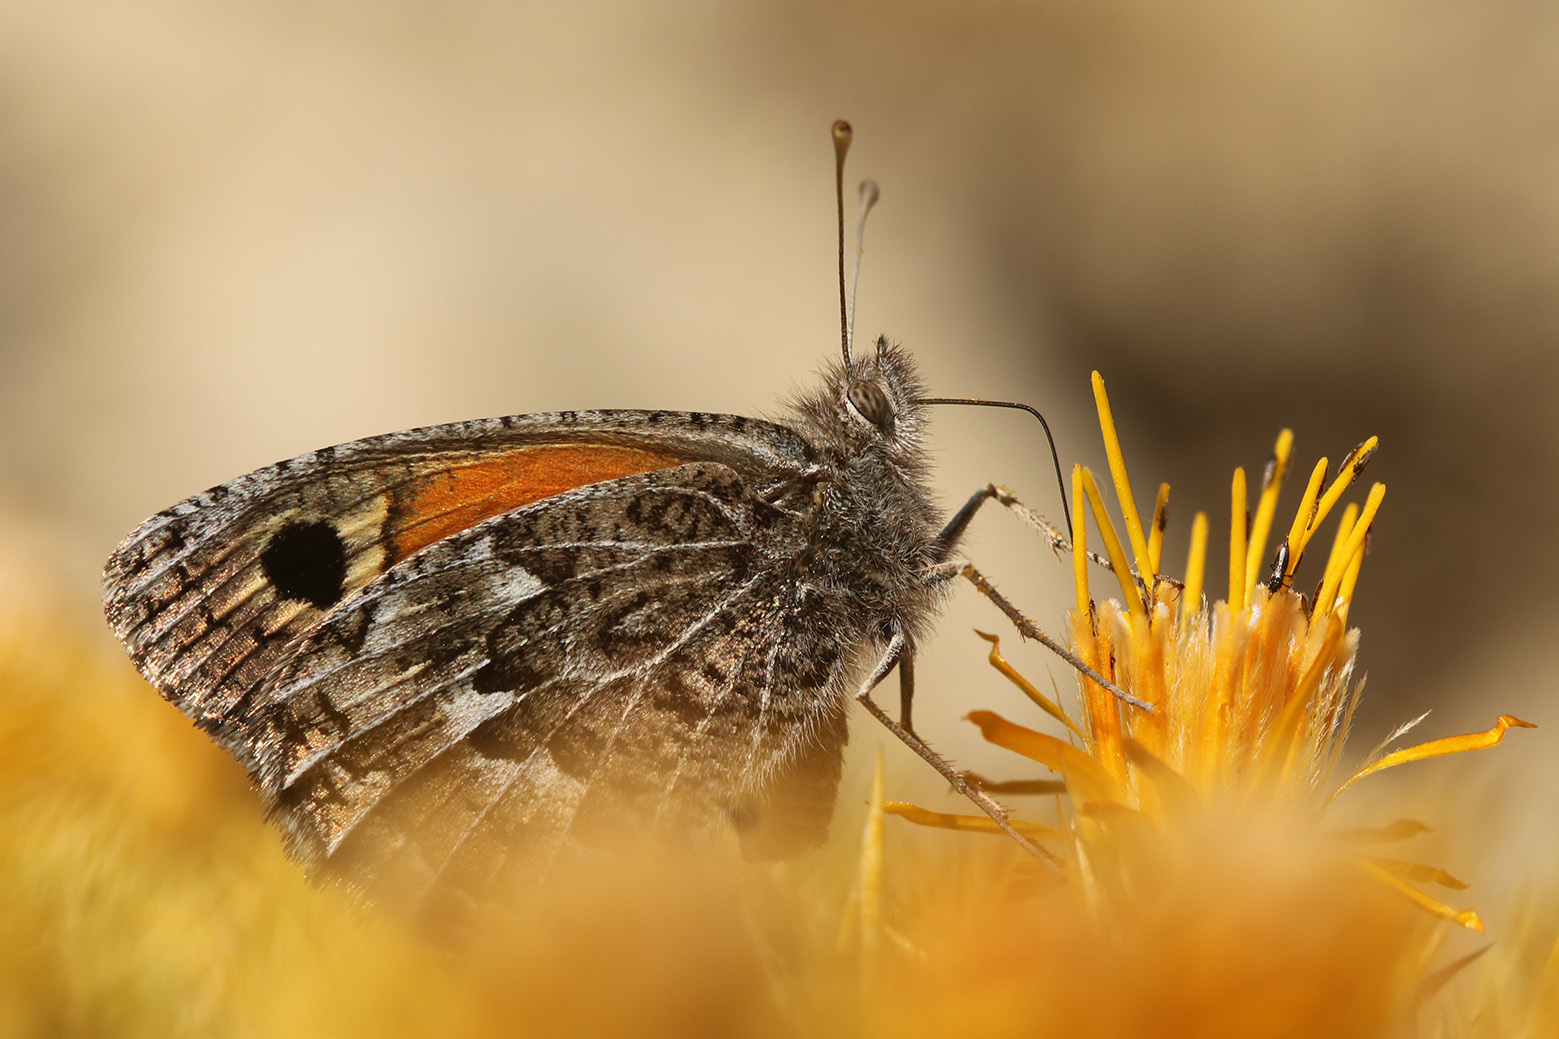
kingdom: Animalia
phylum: Arthropoda
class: Insecta
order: Lepidoptera
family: Nymphalidae
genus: Argyrophorus
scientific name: Argyrophorus
